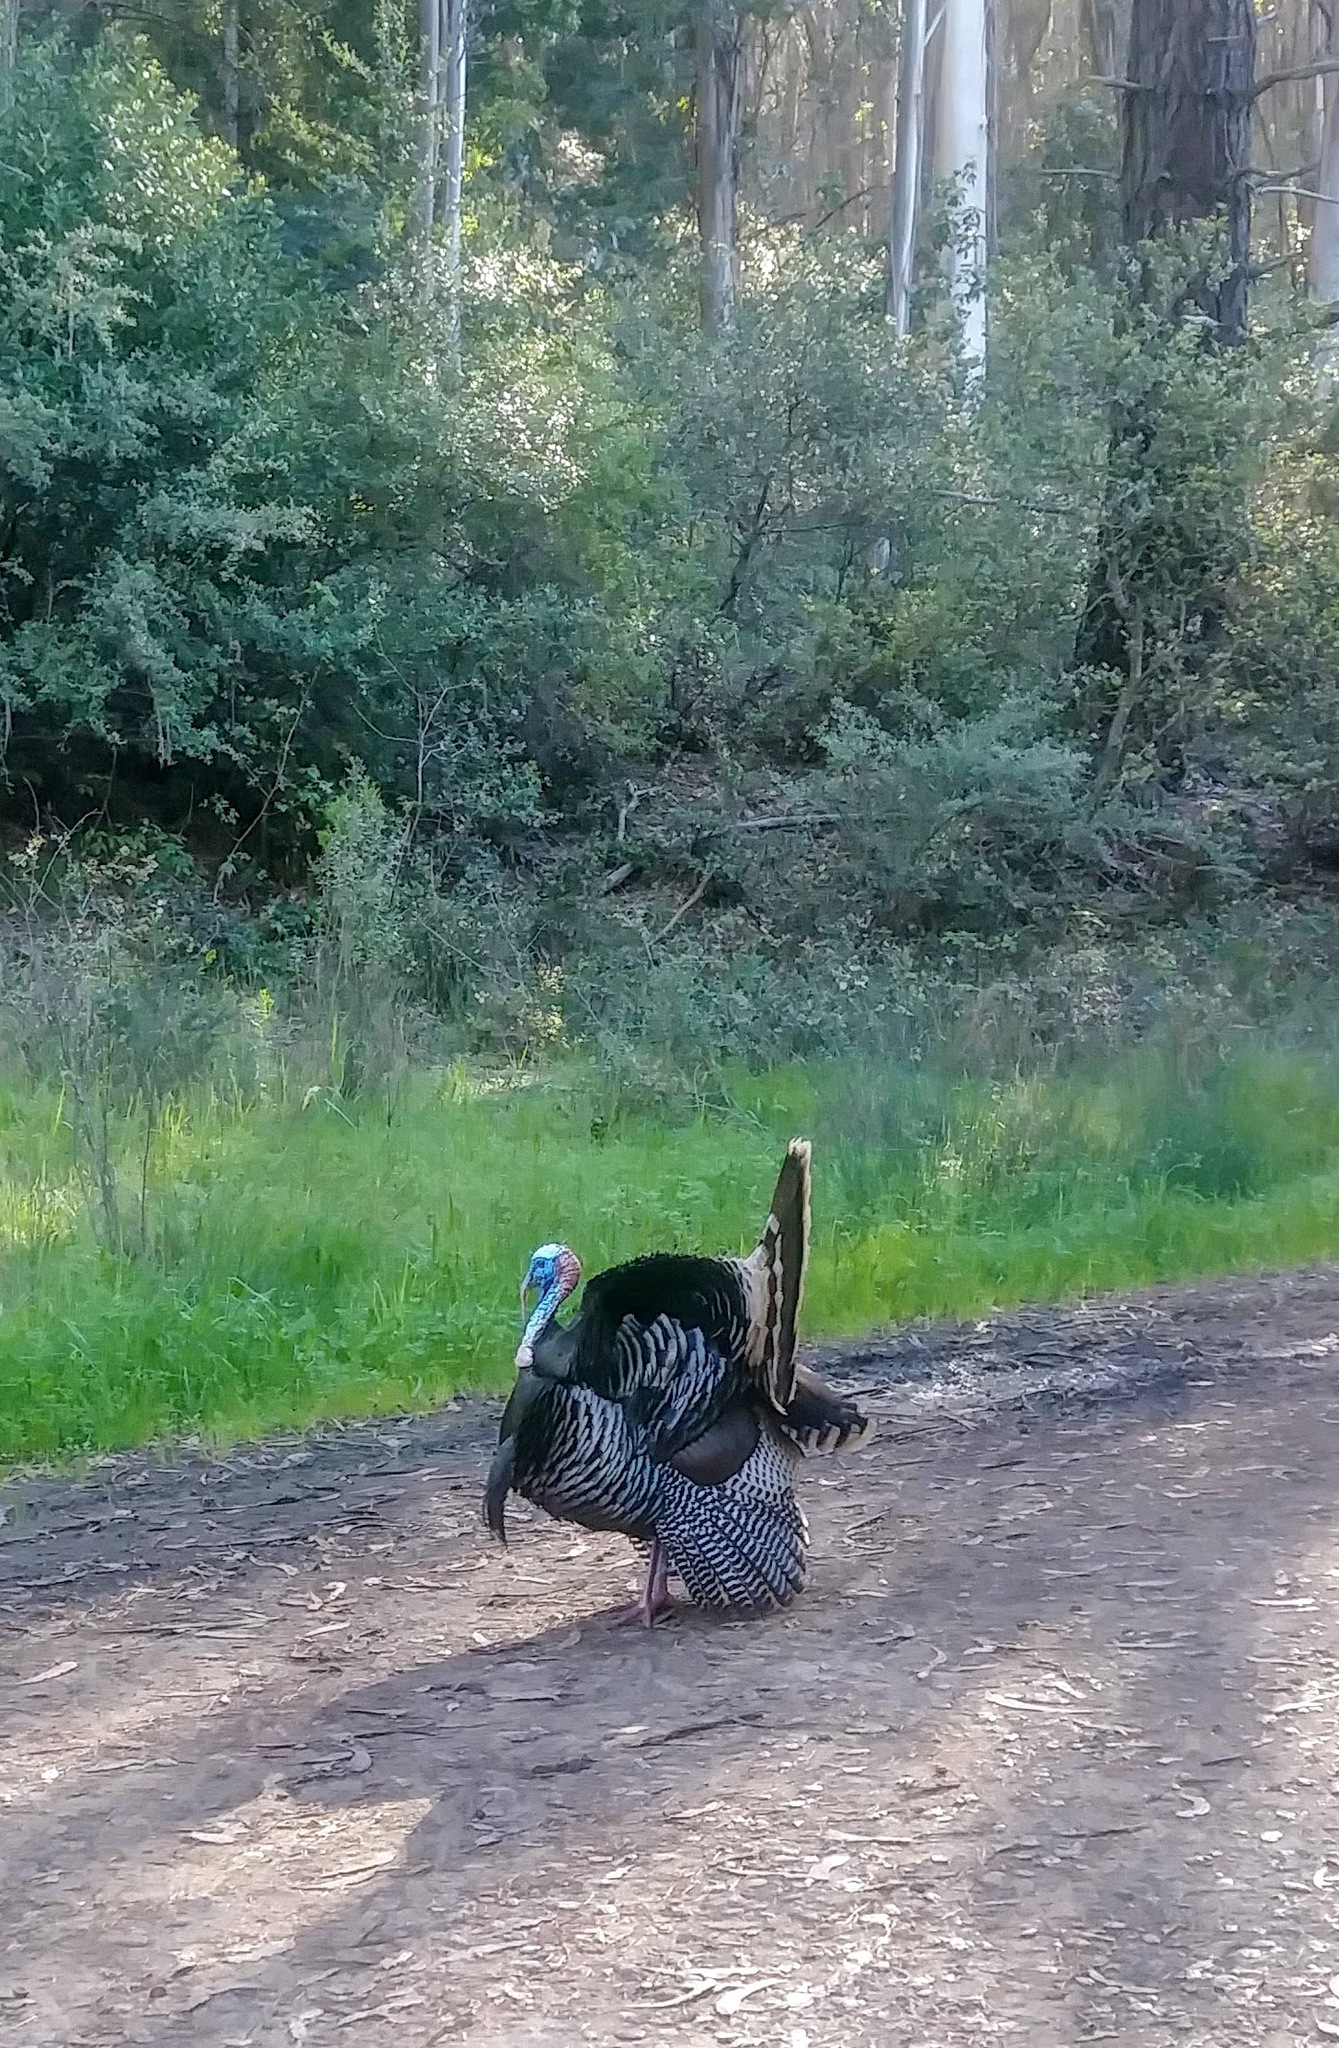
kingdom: Animalia
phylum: Chordata
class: Aves
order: Galliformes
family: Phasianidae
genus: Meleagris
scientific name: Meleagris gallopavo
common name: Wild turkey
